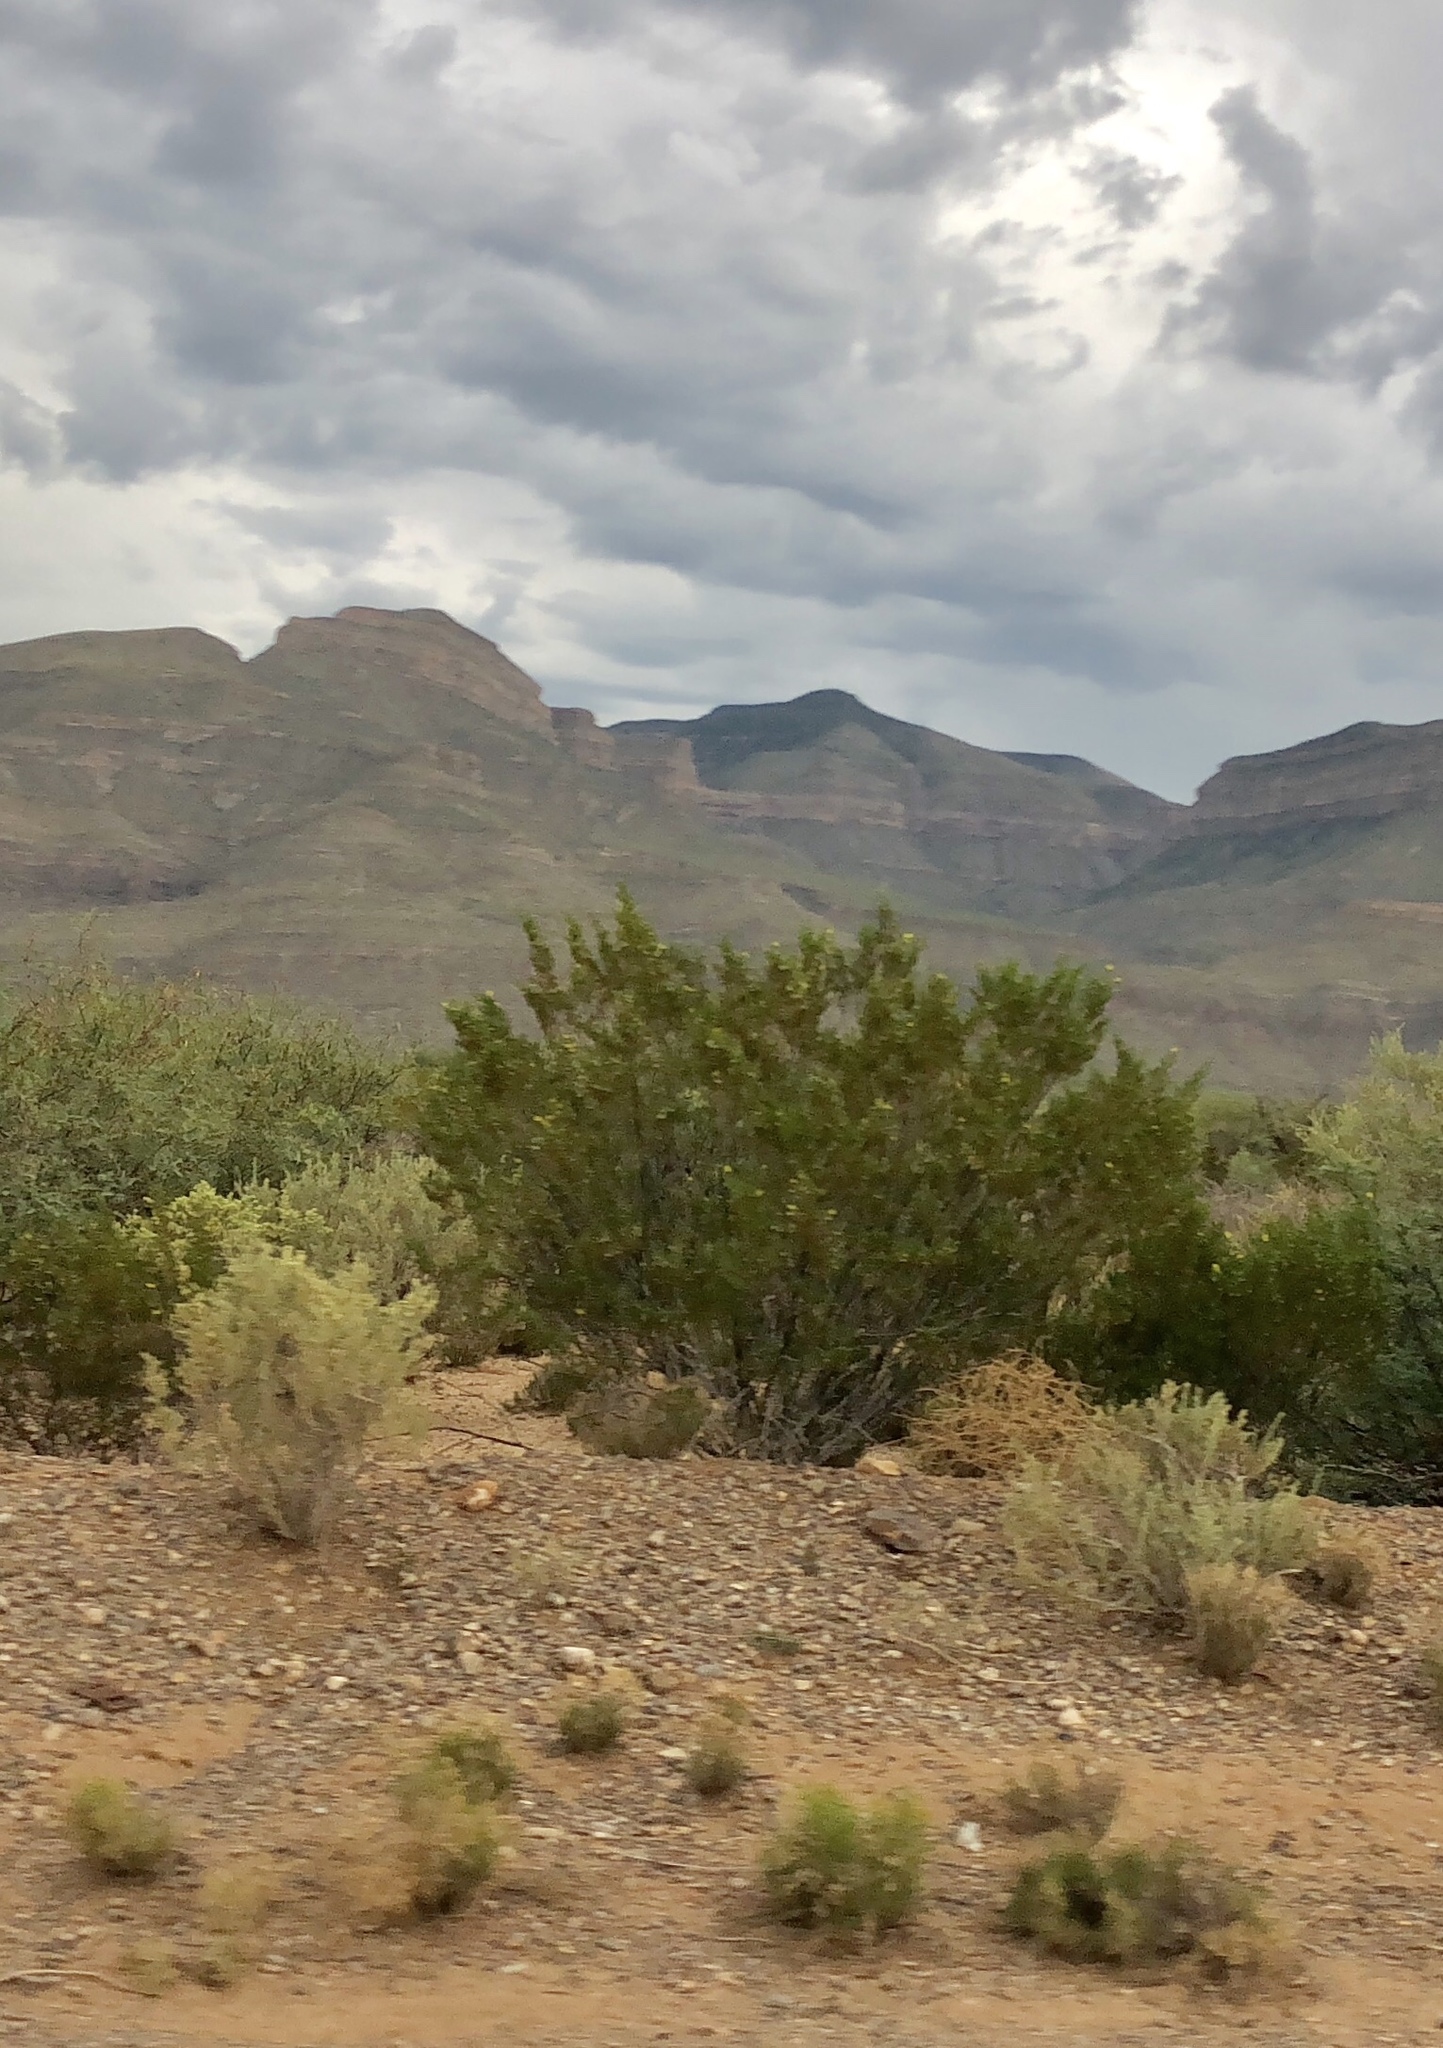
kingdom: Plantae
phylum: Tracheophyta
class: Magnoliopsida
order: Zygophyllales
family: Zygophyllaceae
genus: Larrea
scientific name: Larrea tridentata
